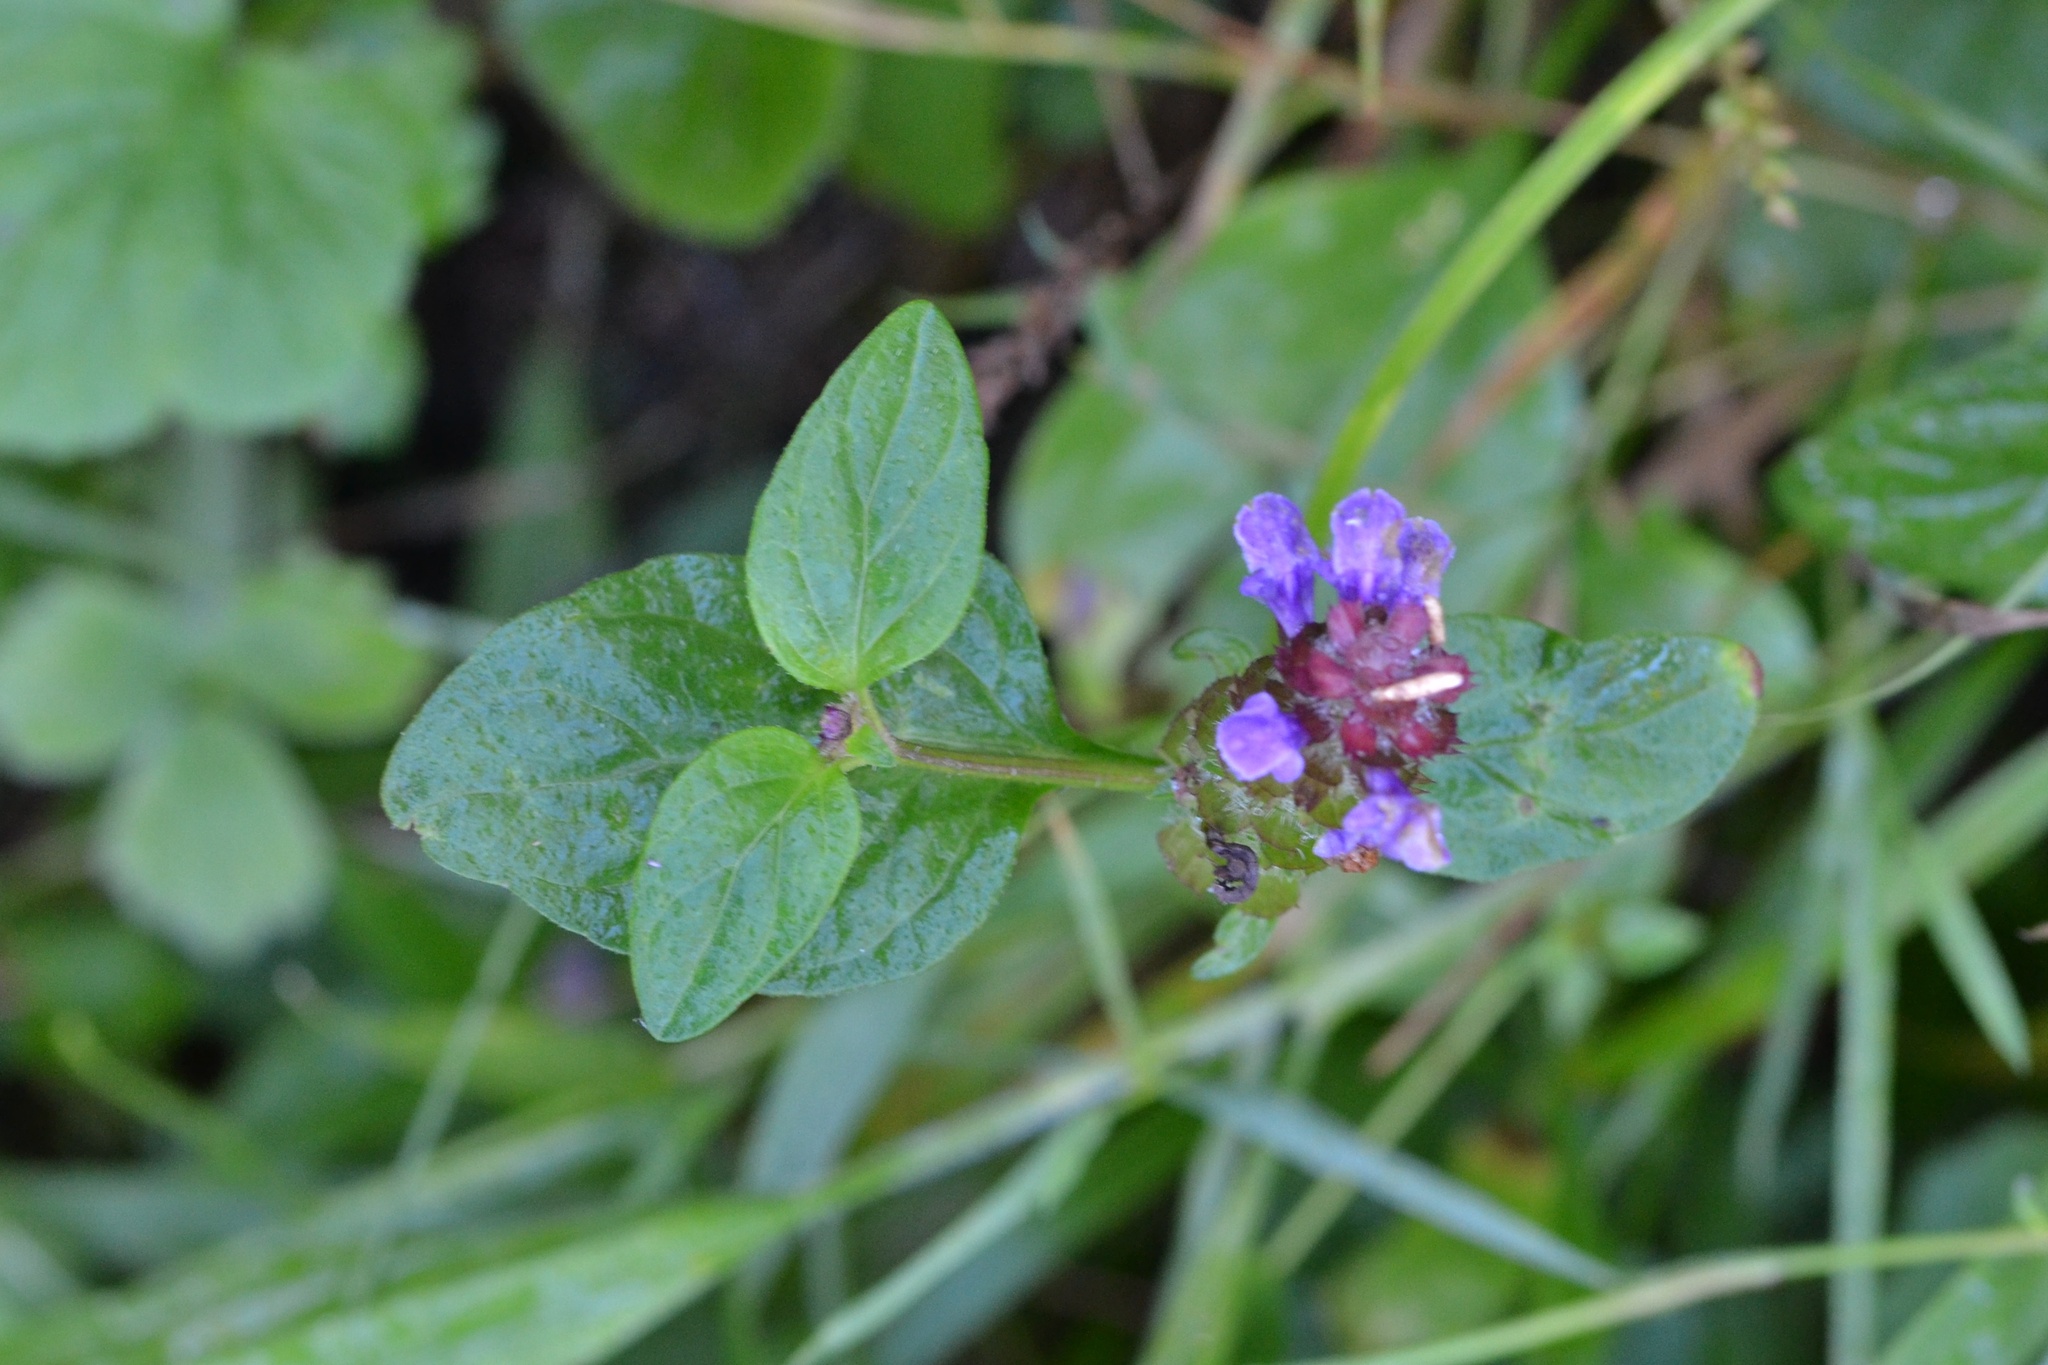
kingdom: Plantae
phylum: Tracheophyta
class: Magnoliopsida
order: Lamiales
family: Lamiaceae
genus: Prunella
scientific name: Prunella vulgaris
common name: Heal-all
